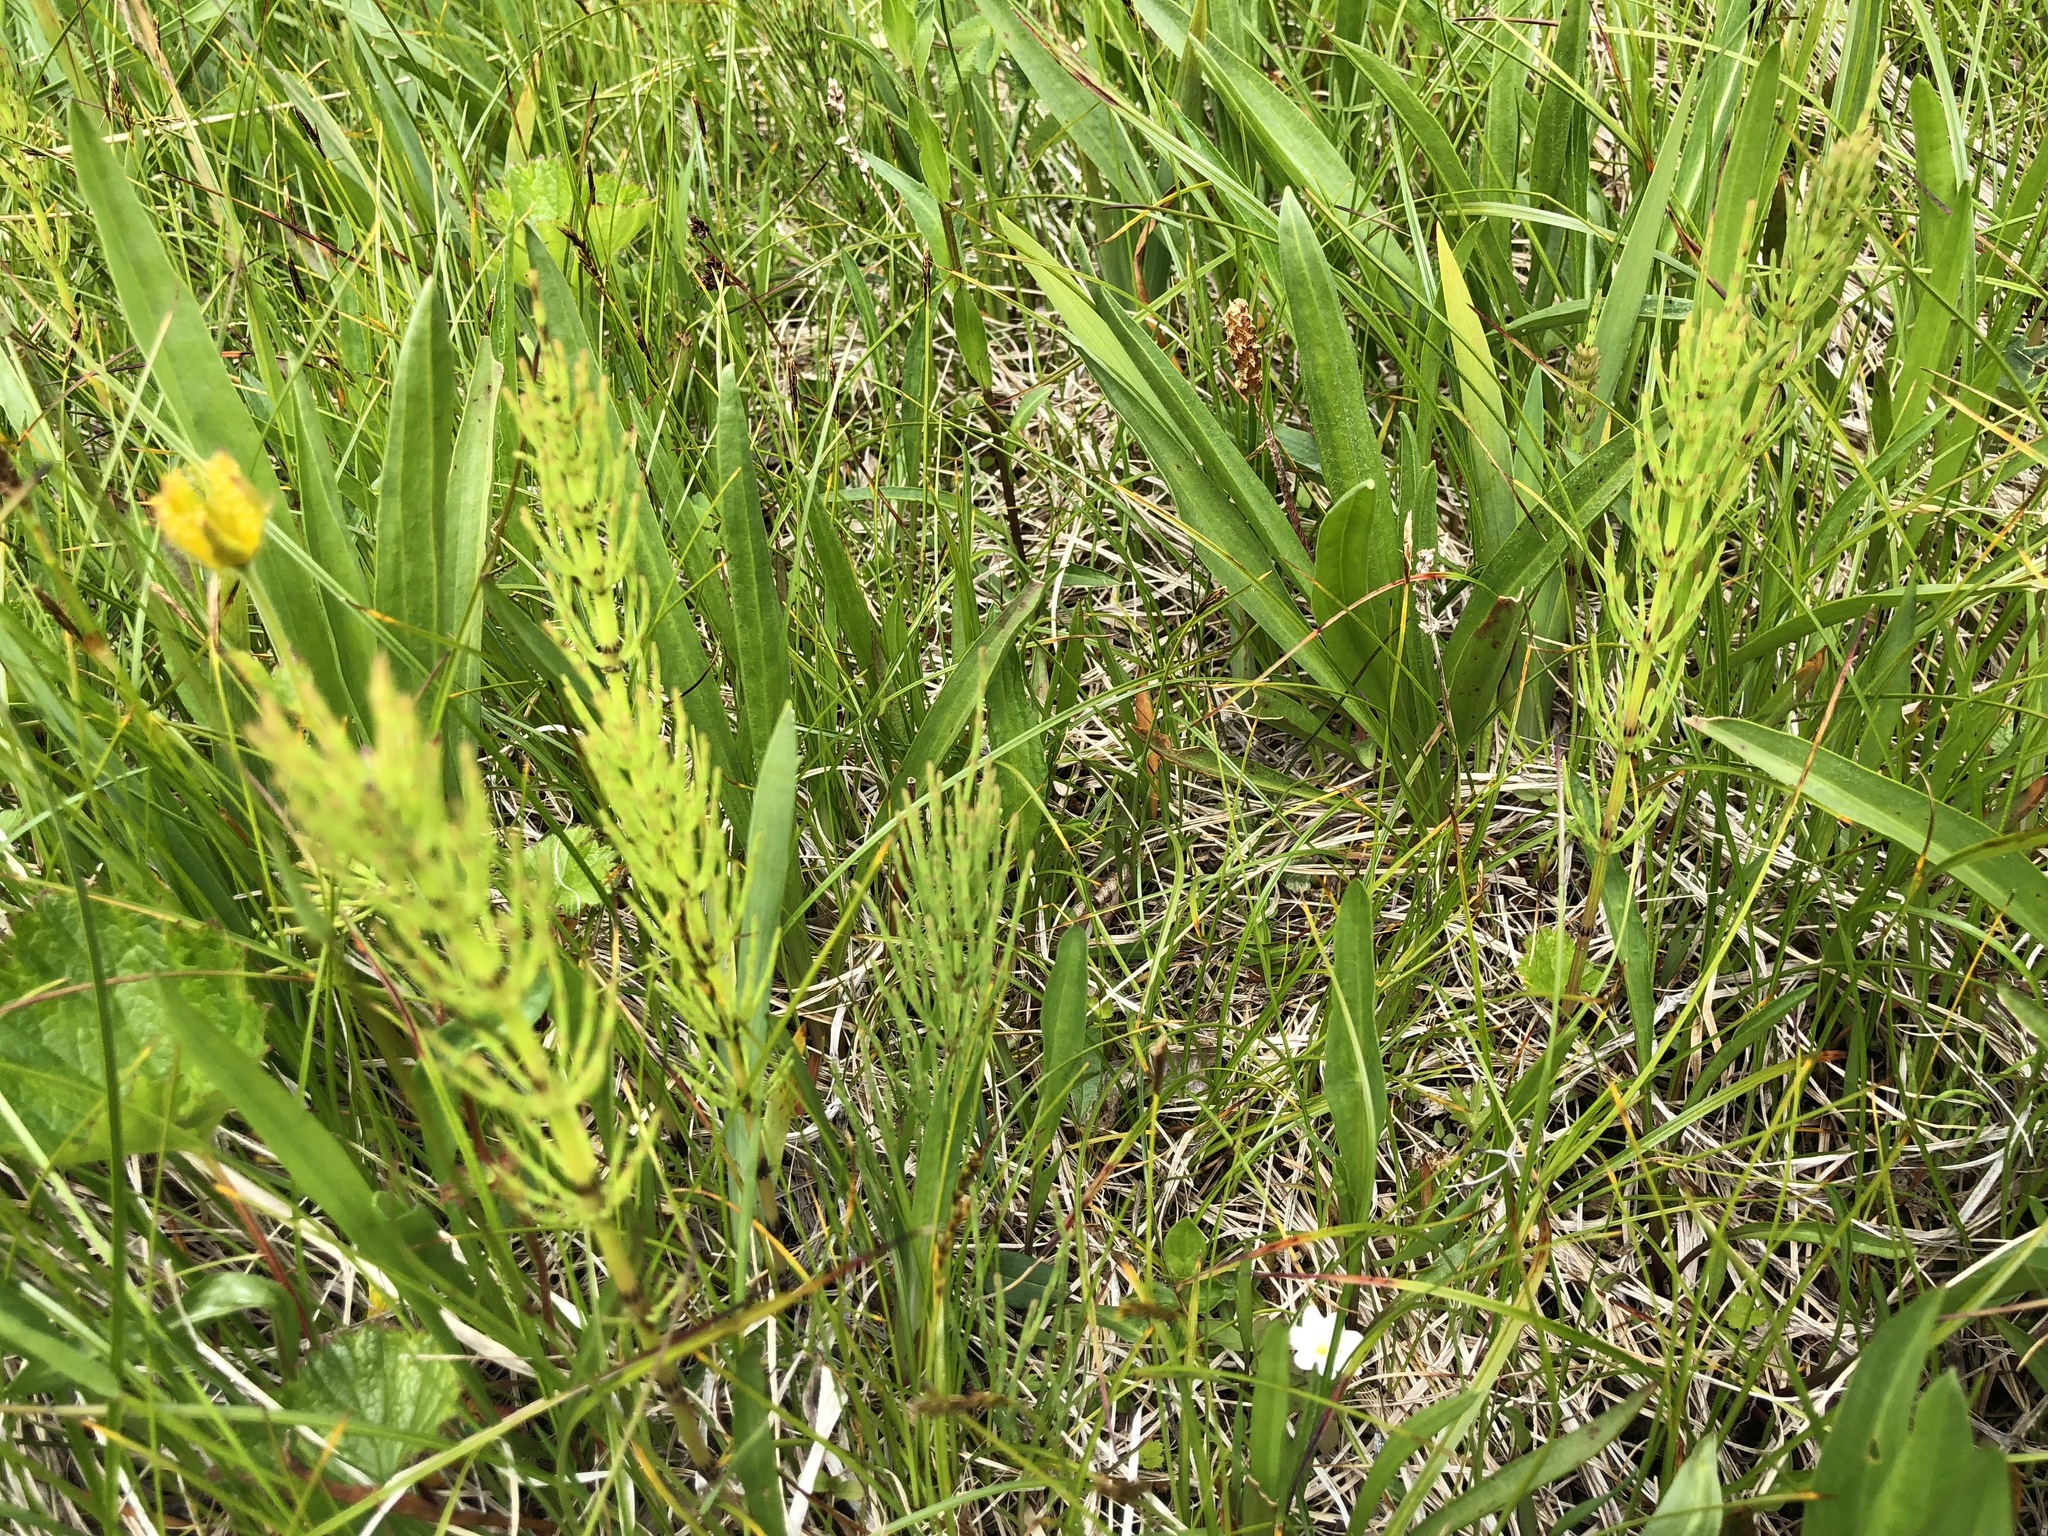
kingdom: Plantae
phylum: Tracheophyta
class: Polypodiopsida
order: Equisetales
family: Equisetaceae
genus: Equisetum
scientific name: Equisetum arvense
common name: Field horsetail
